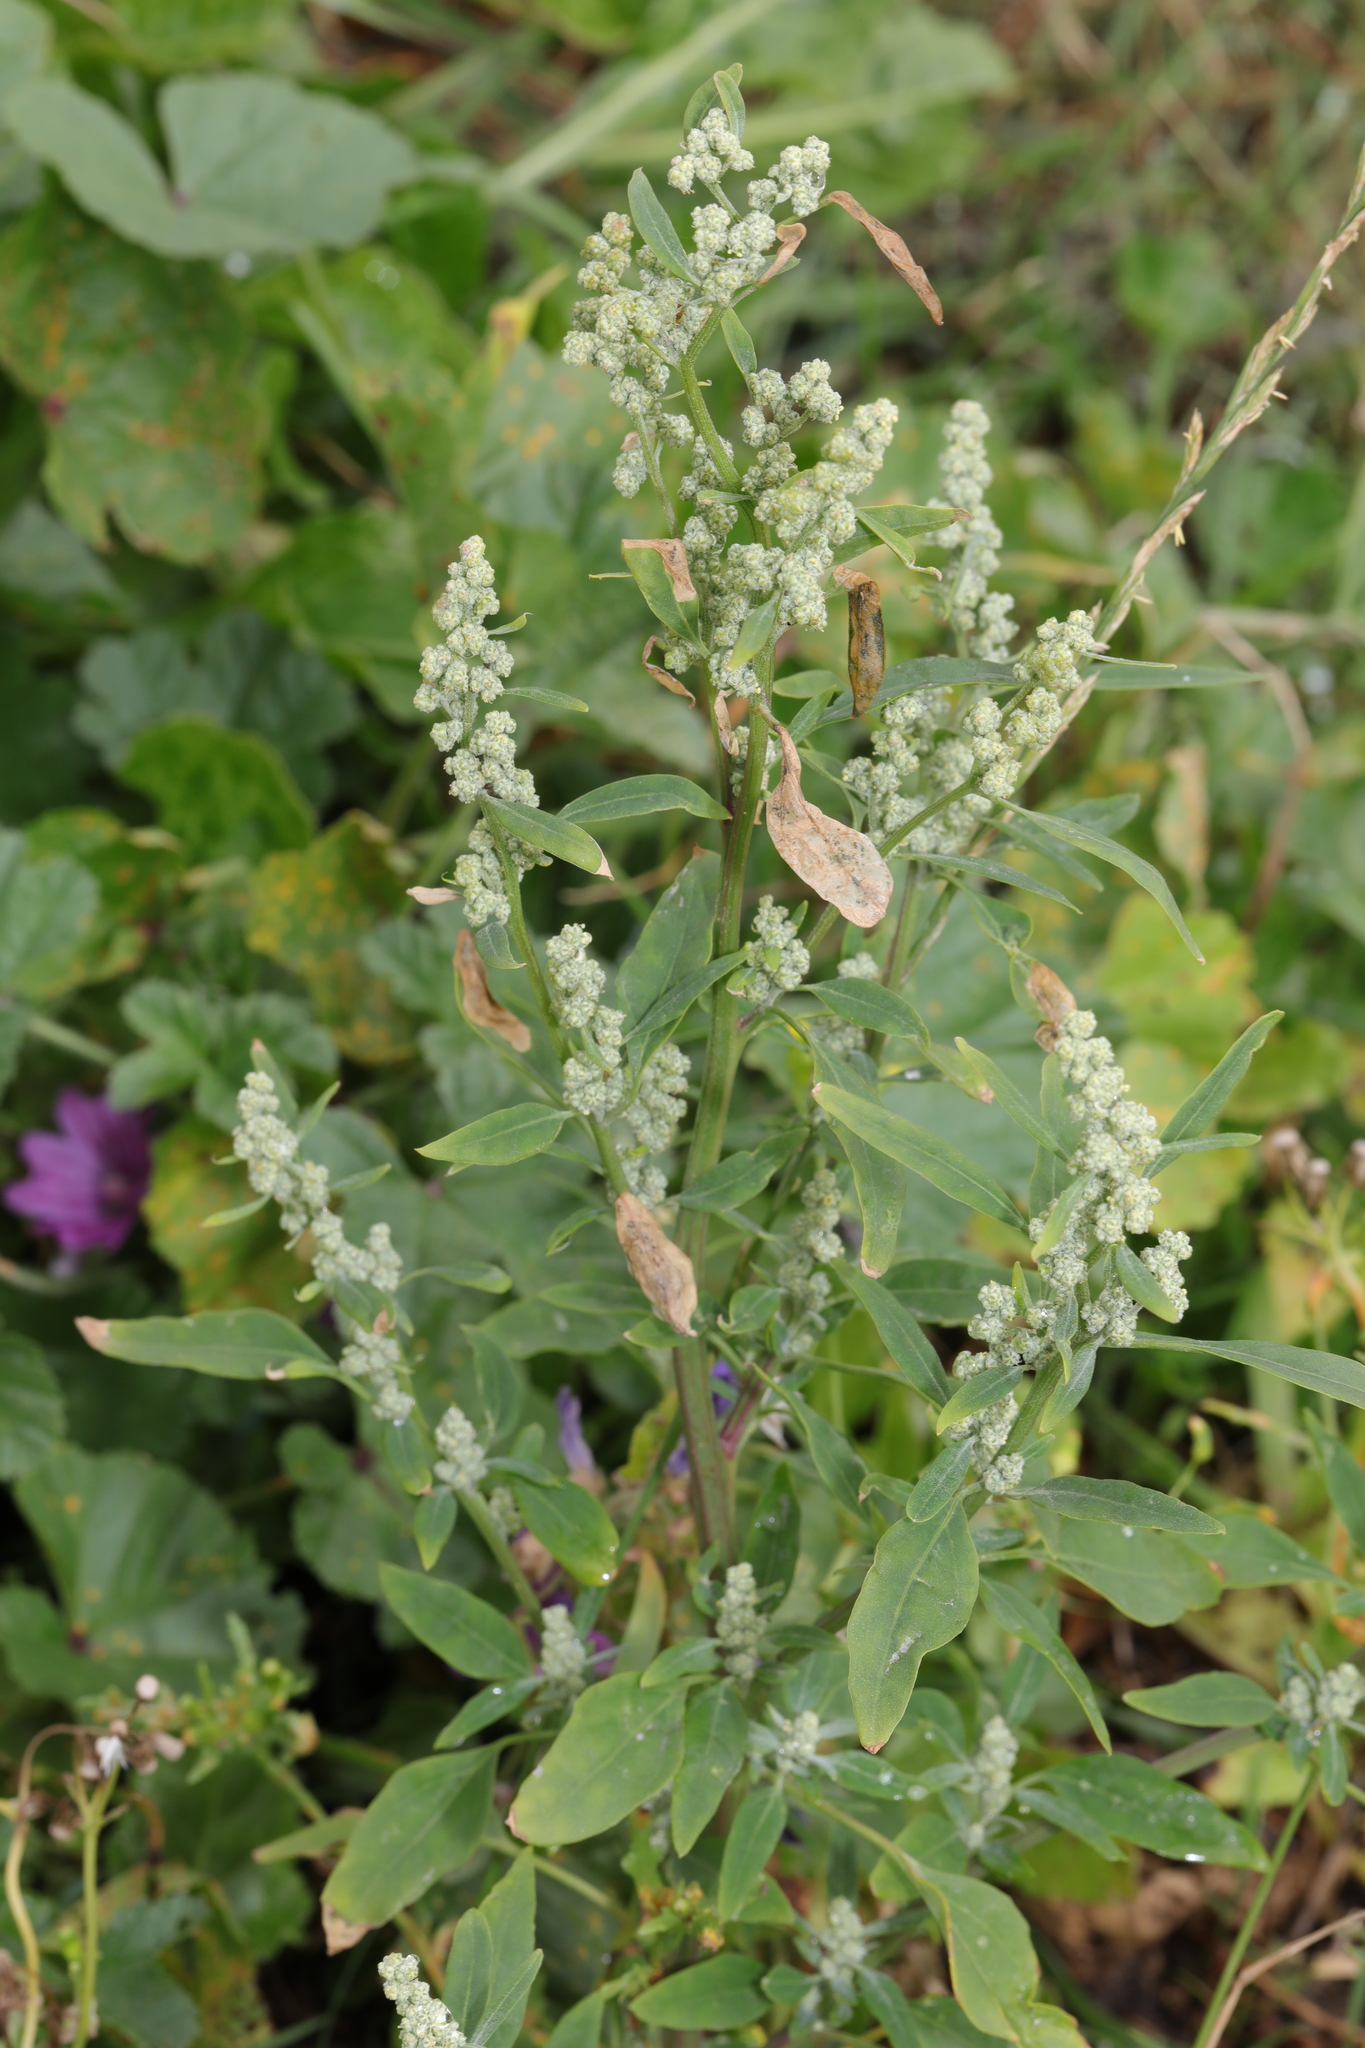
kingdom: Plantae
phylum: Tracheophyta
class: Magnoliopsida
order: Caryophyllales
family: Amaranthaceae
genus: Chenopodium
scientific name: Chenopodium album
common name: Fat-hen
